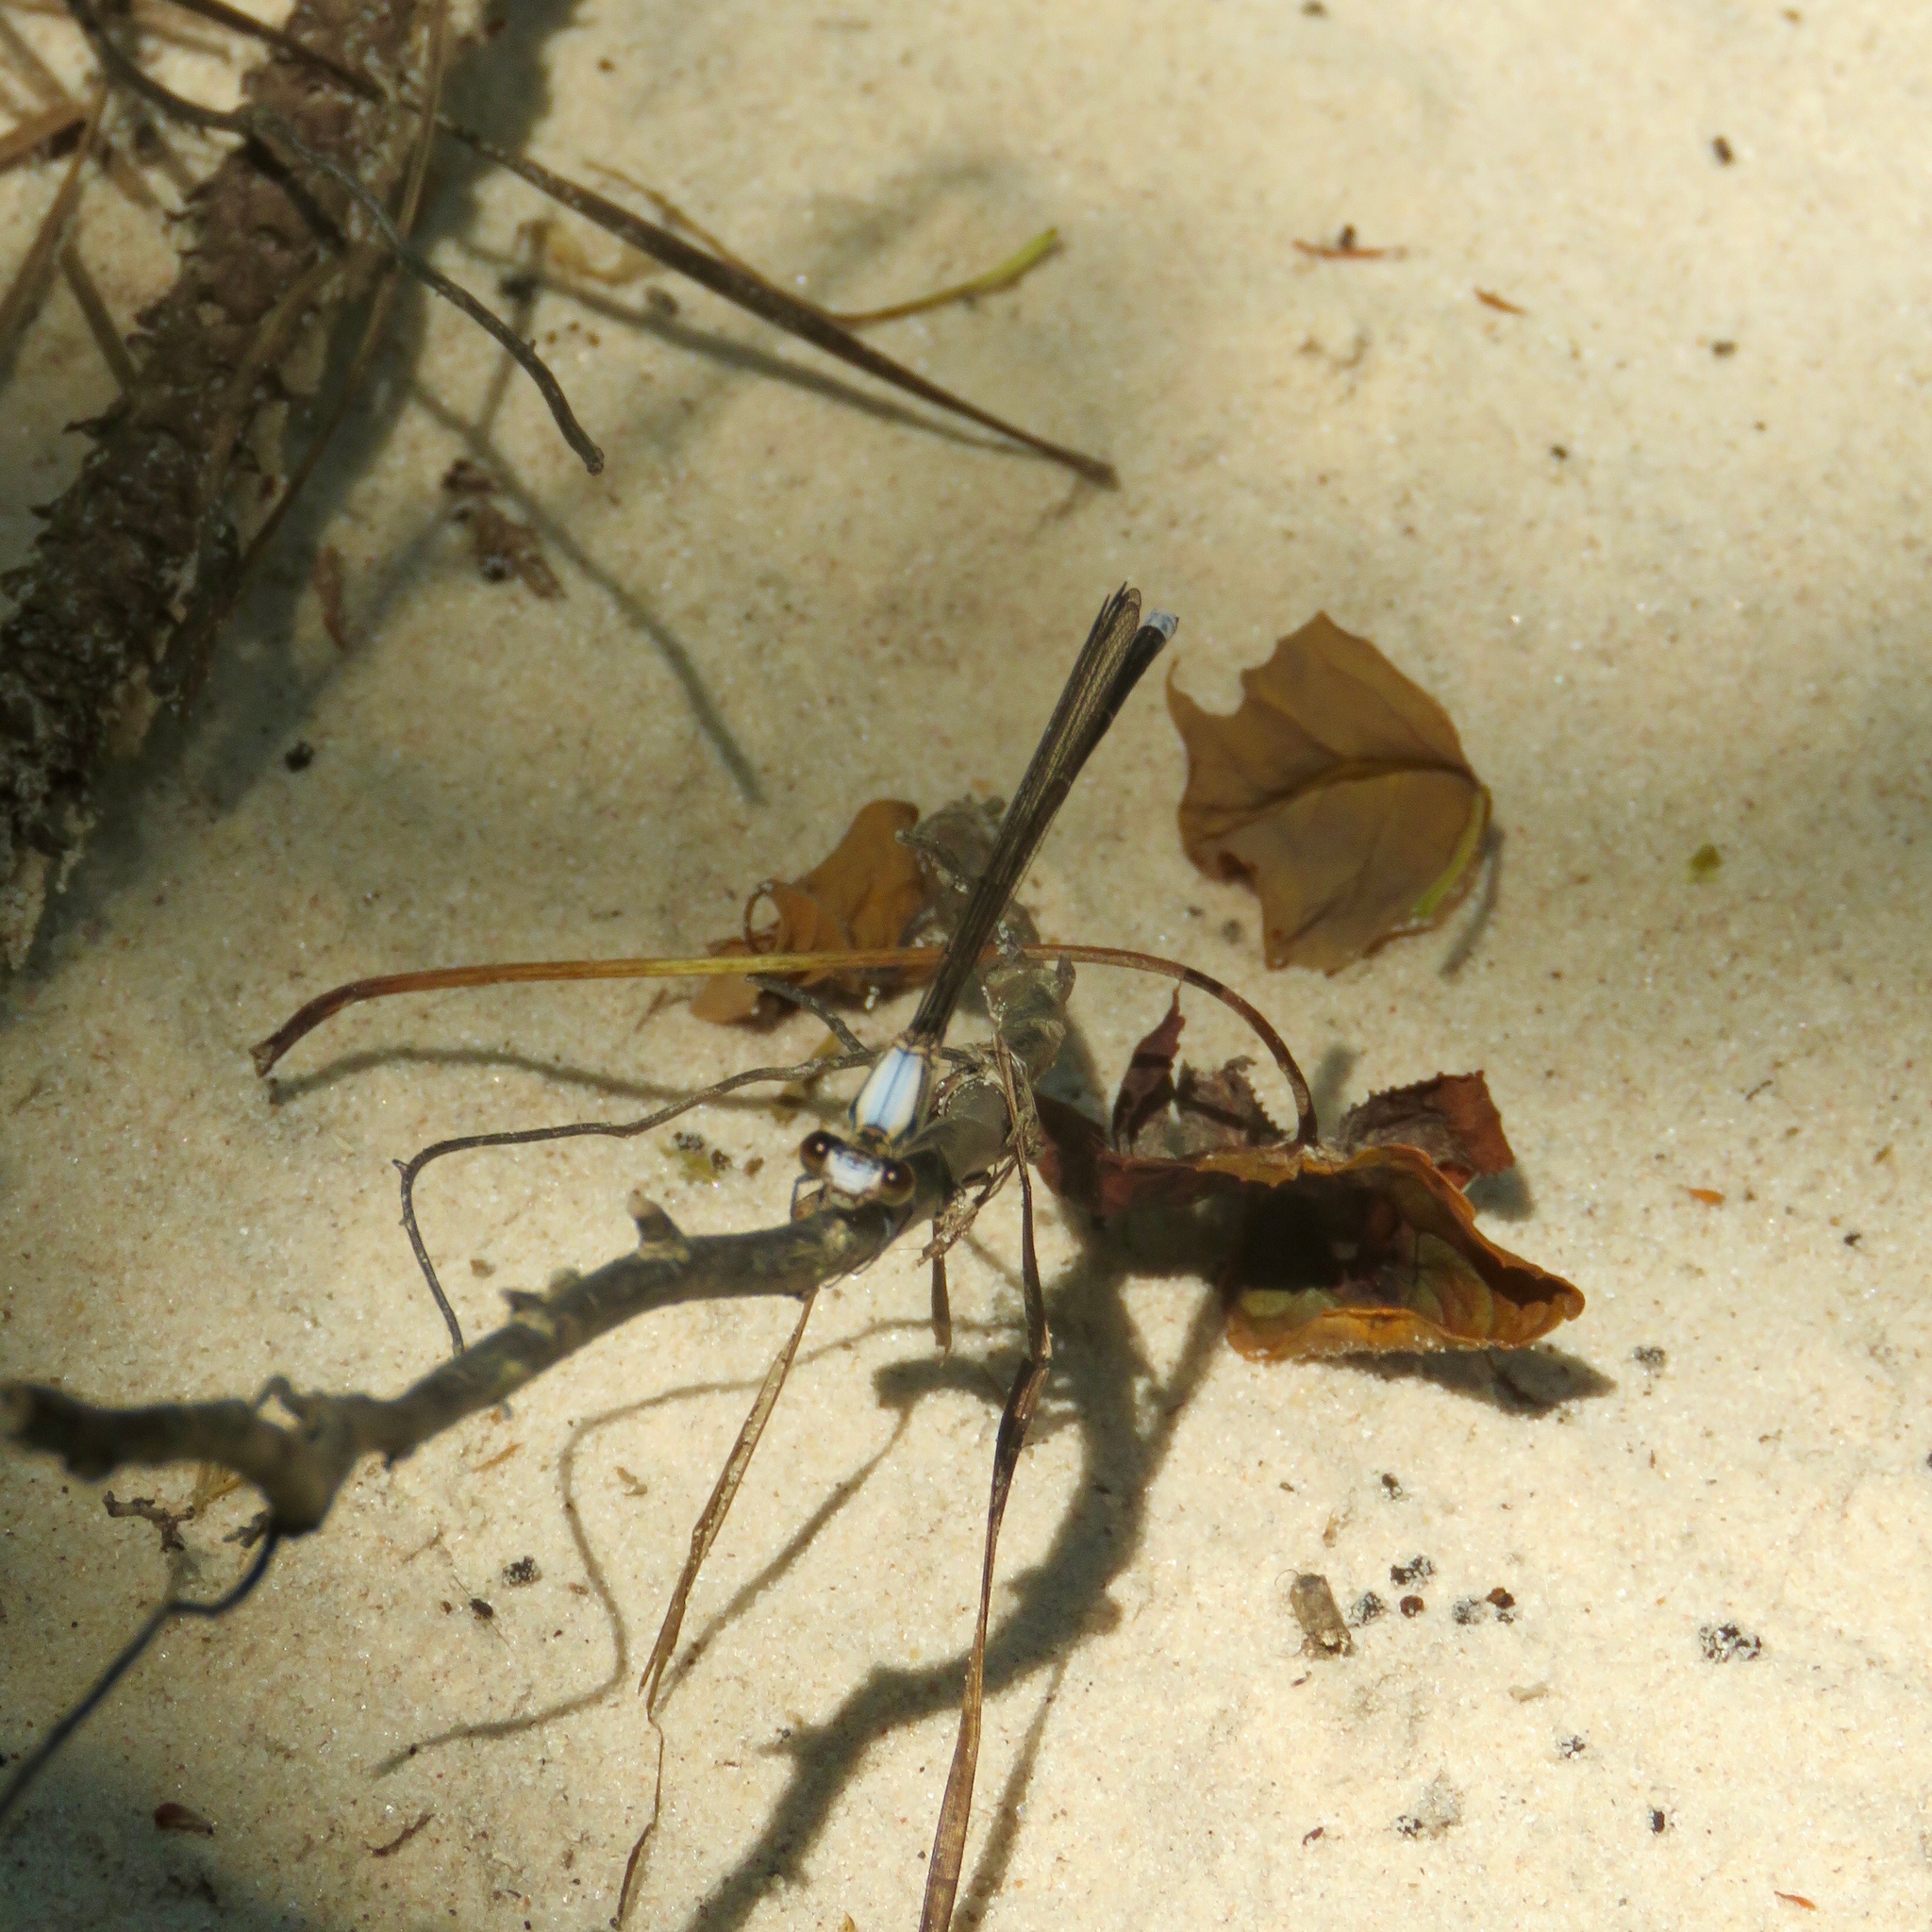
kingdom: Animalia
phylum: Arthropoda
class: Insecta
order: Odonata
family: Coenagrionidae
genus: Argia
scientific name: Argia moesta
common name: Powdered dancer
